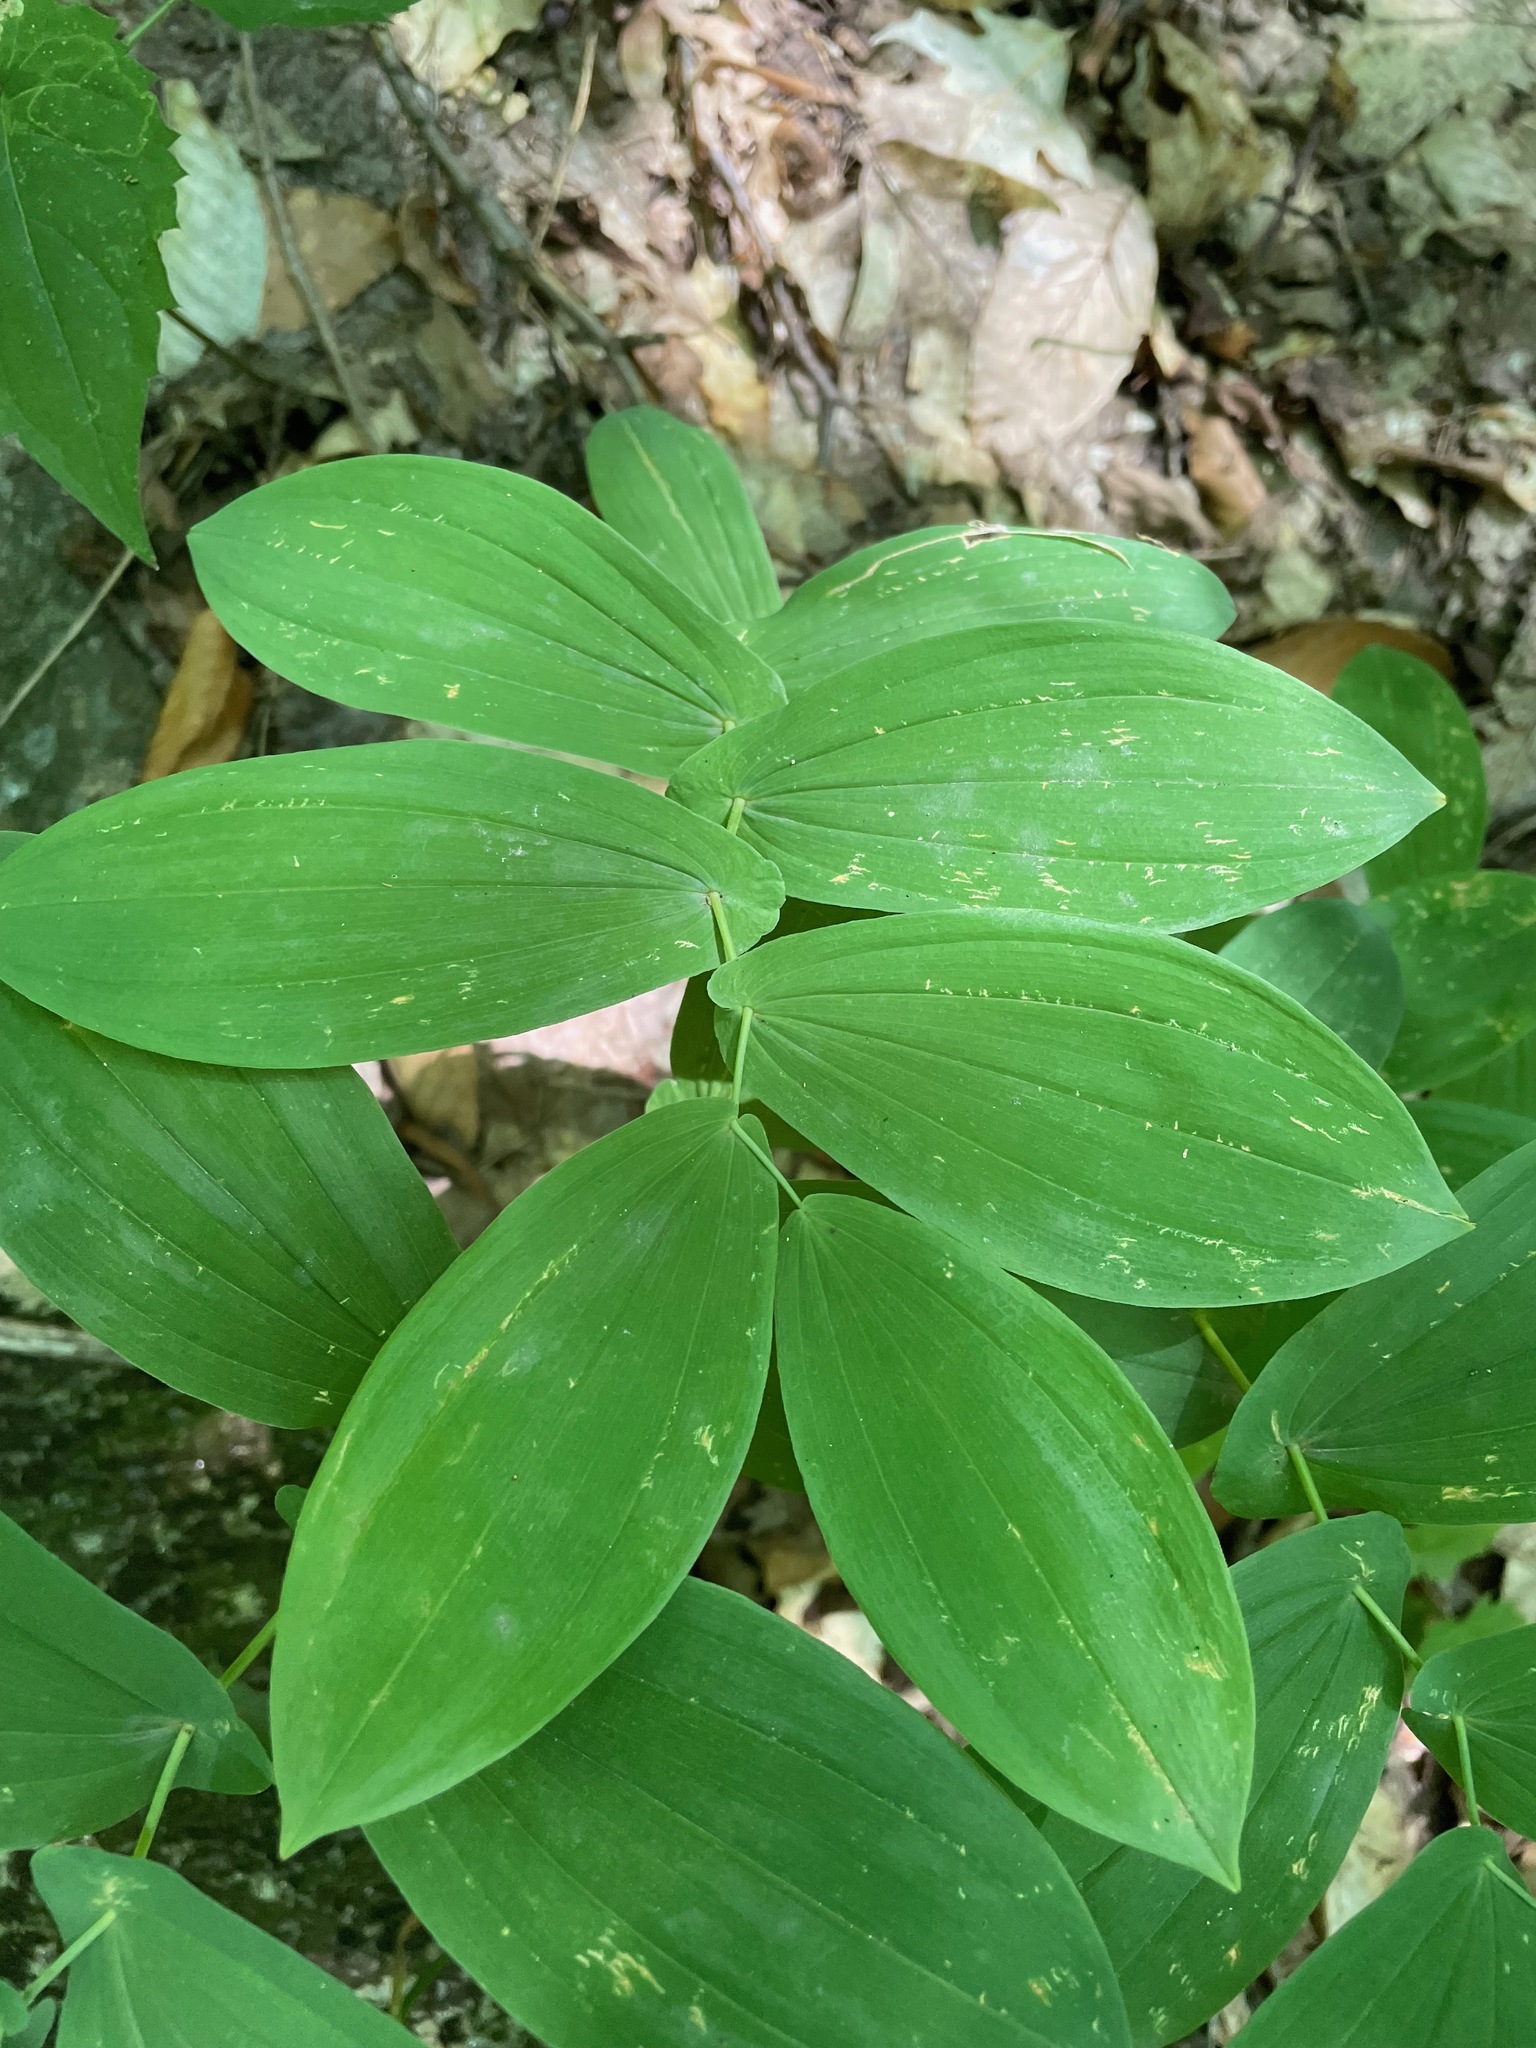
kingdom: Plantae
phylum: Tracheophyta
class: Liliopsida
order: Liliales
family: Colchicaceae
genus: Uvularia
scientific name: Uvularia grandiflora
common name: Bellwort
